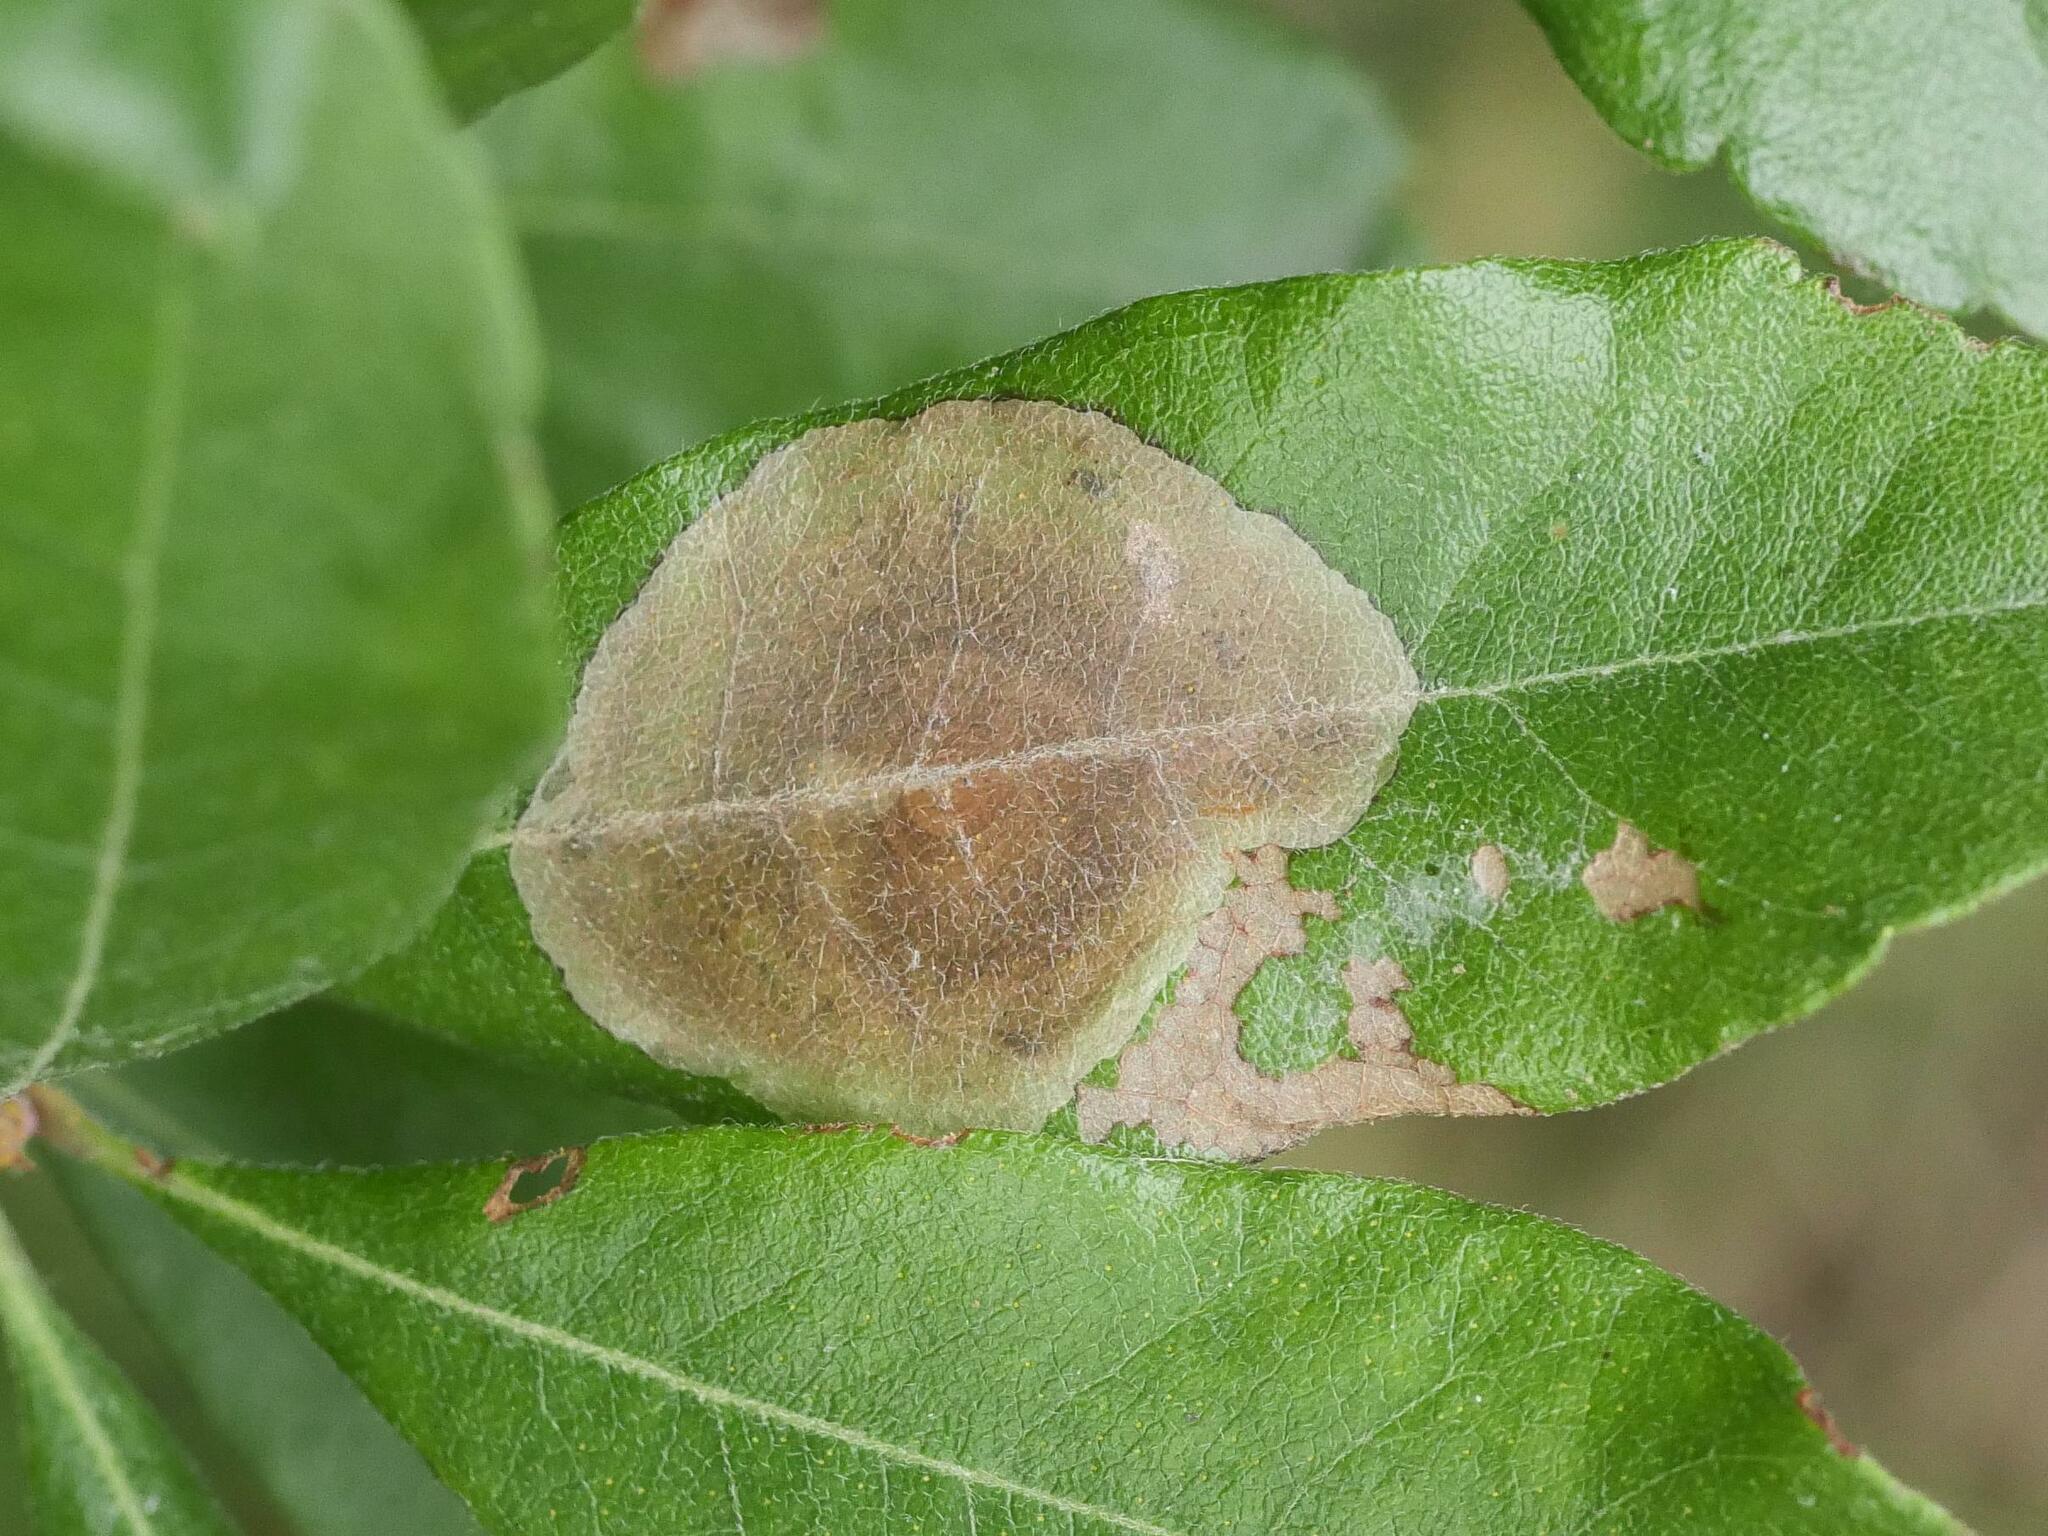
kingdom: Animalia
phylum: Arthropoda
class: Insecta
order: Lepidoptera
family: Gracillariidae
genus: Cameraria
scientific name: Cameraria picturatella
